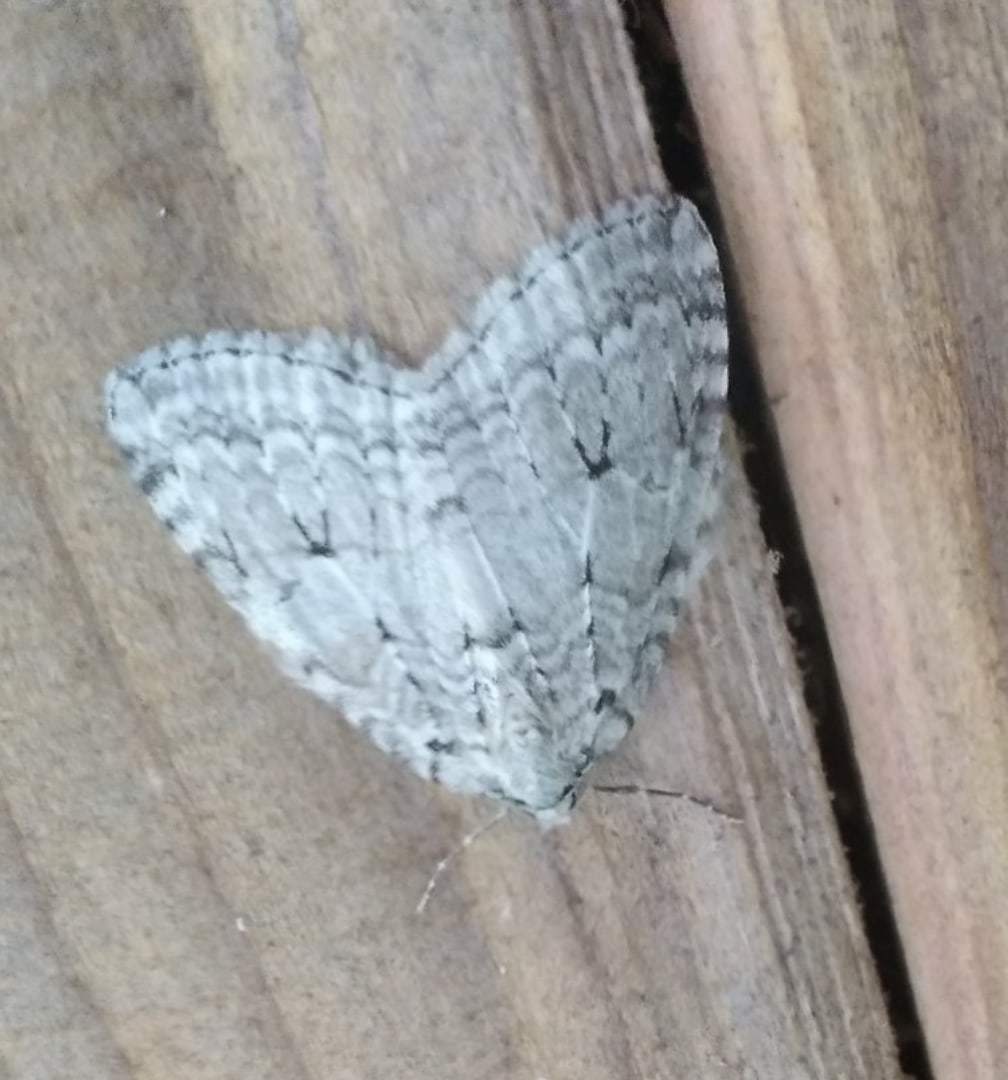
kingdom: Animalia
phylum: Arthropoda
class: Insecta
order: Lepidoptera
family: Geometridae
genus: Epirrita
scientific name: Epirrita autumnata
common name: Autumnal moth
